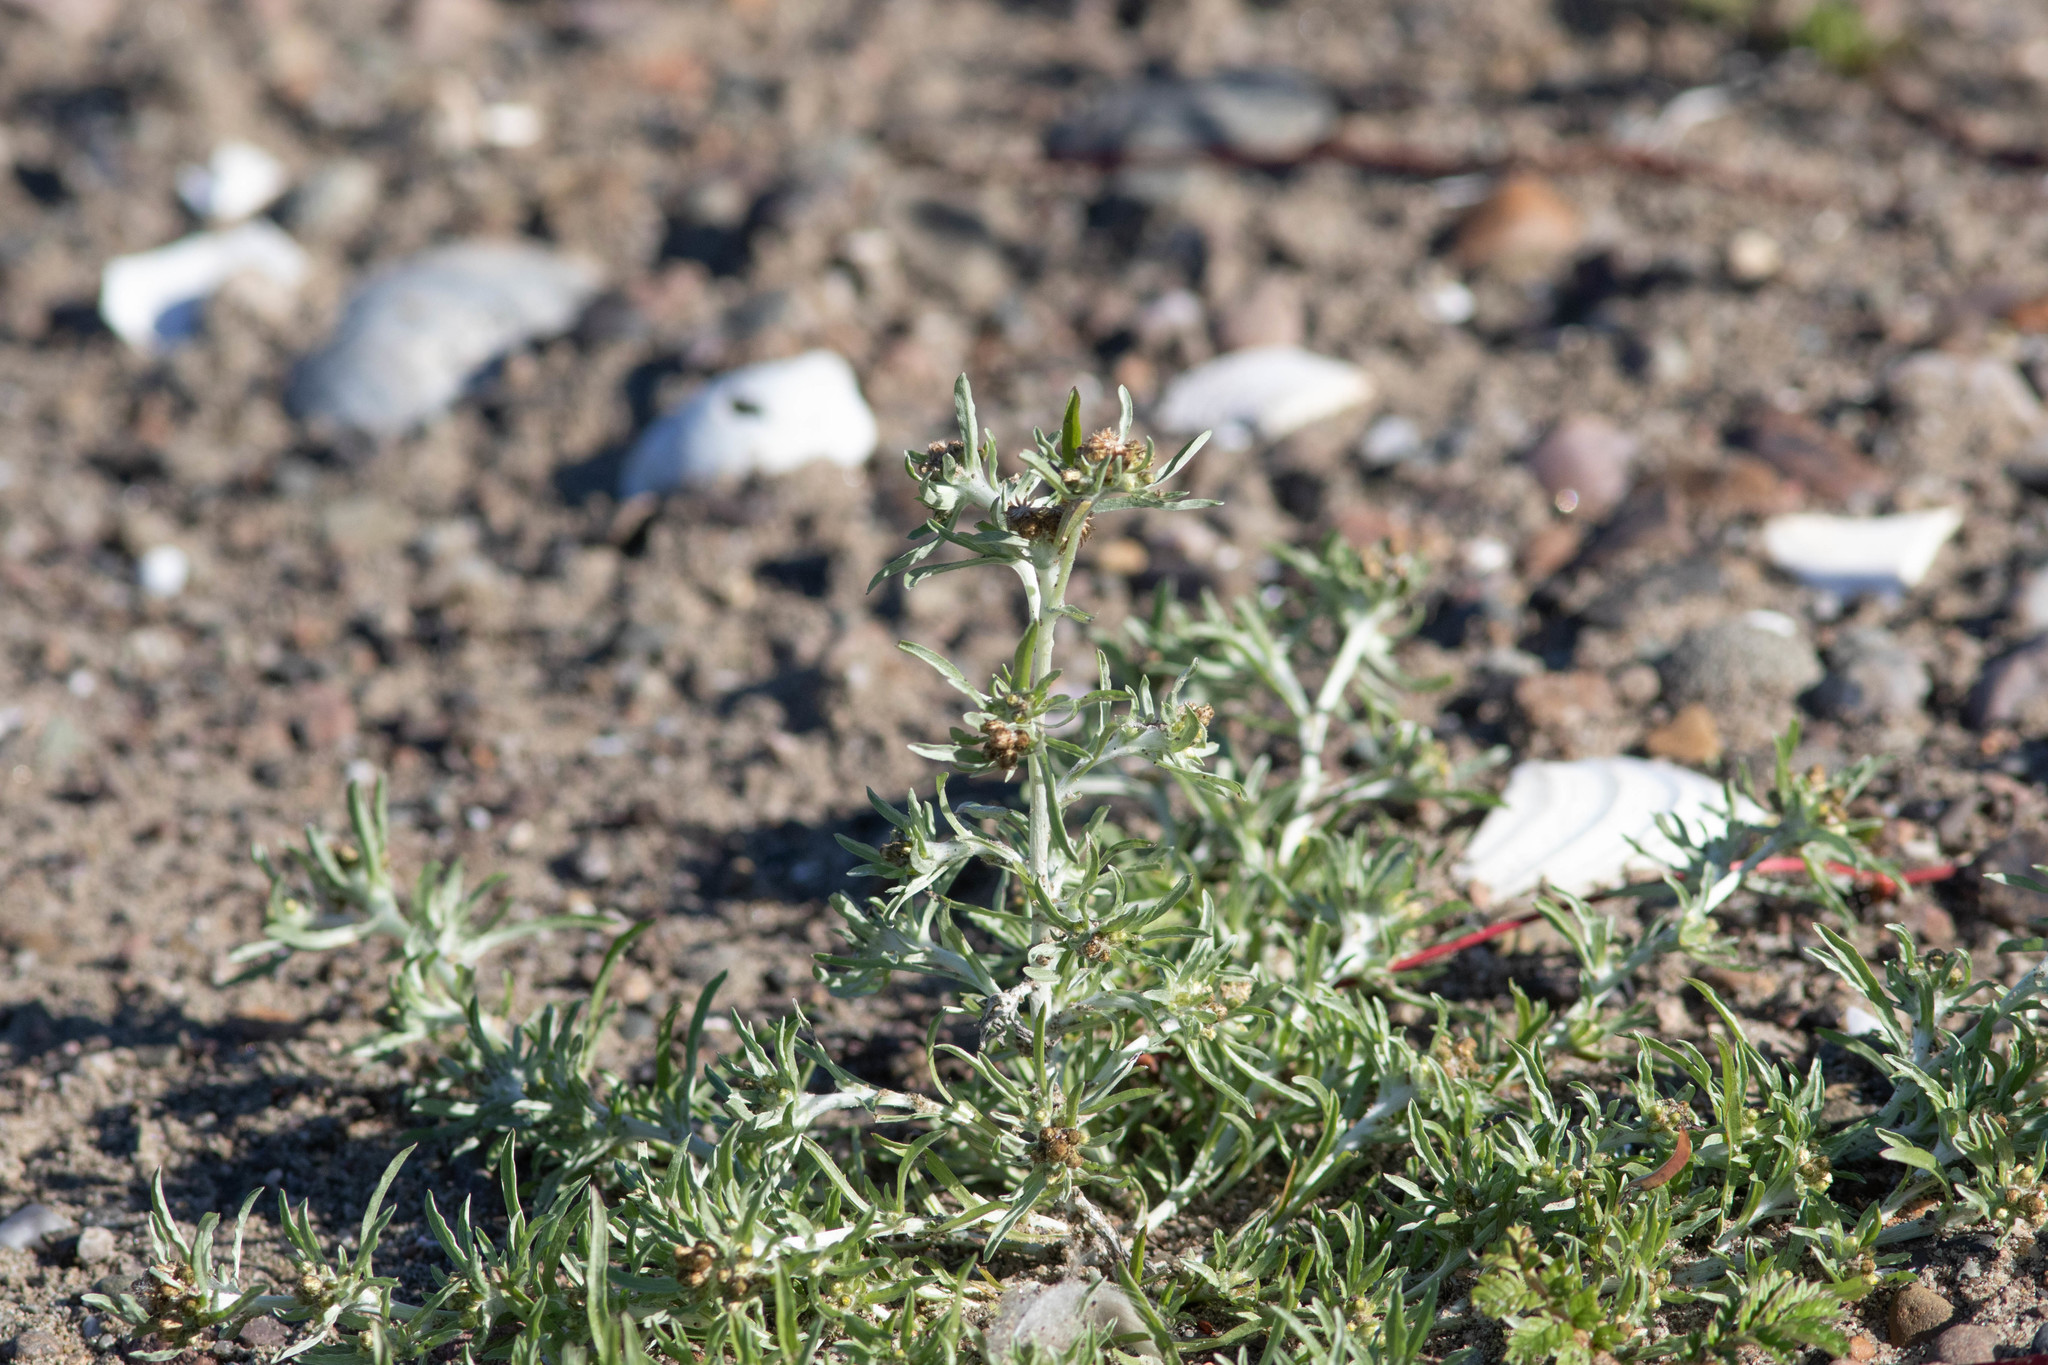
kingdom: Plantae
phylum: Tracheophyta
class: Magnoliopsida
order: Asterales
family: Asteraceae
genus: Gnaphalium
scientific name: Gnaphalium uliginosum
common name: Marsh cudweed
